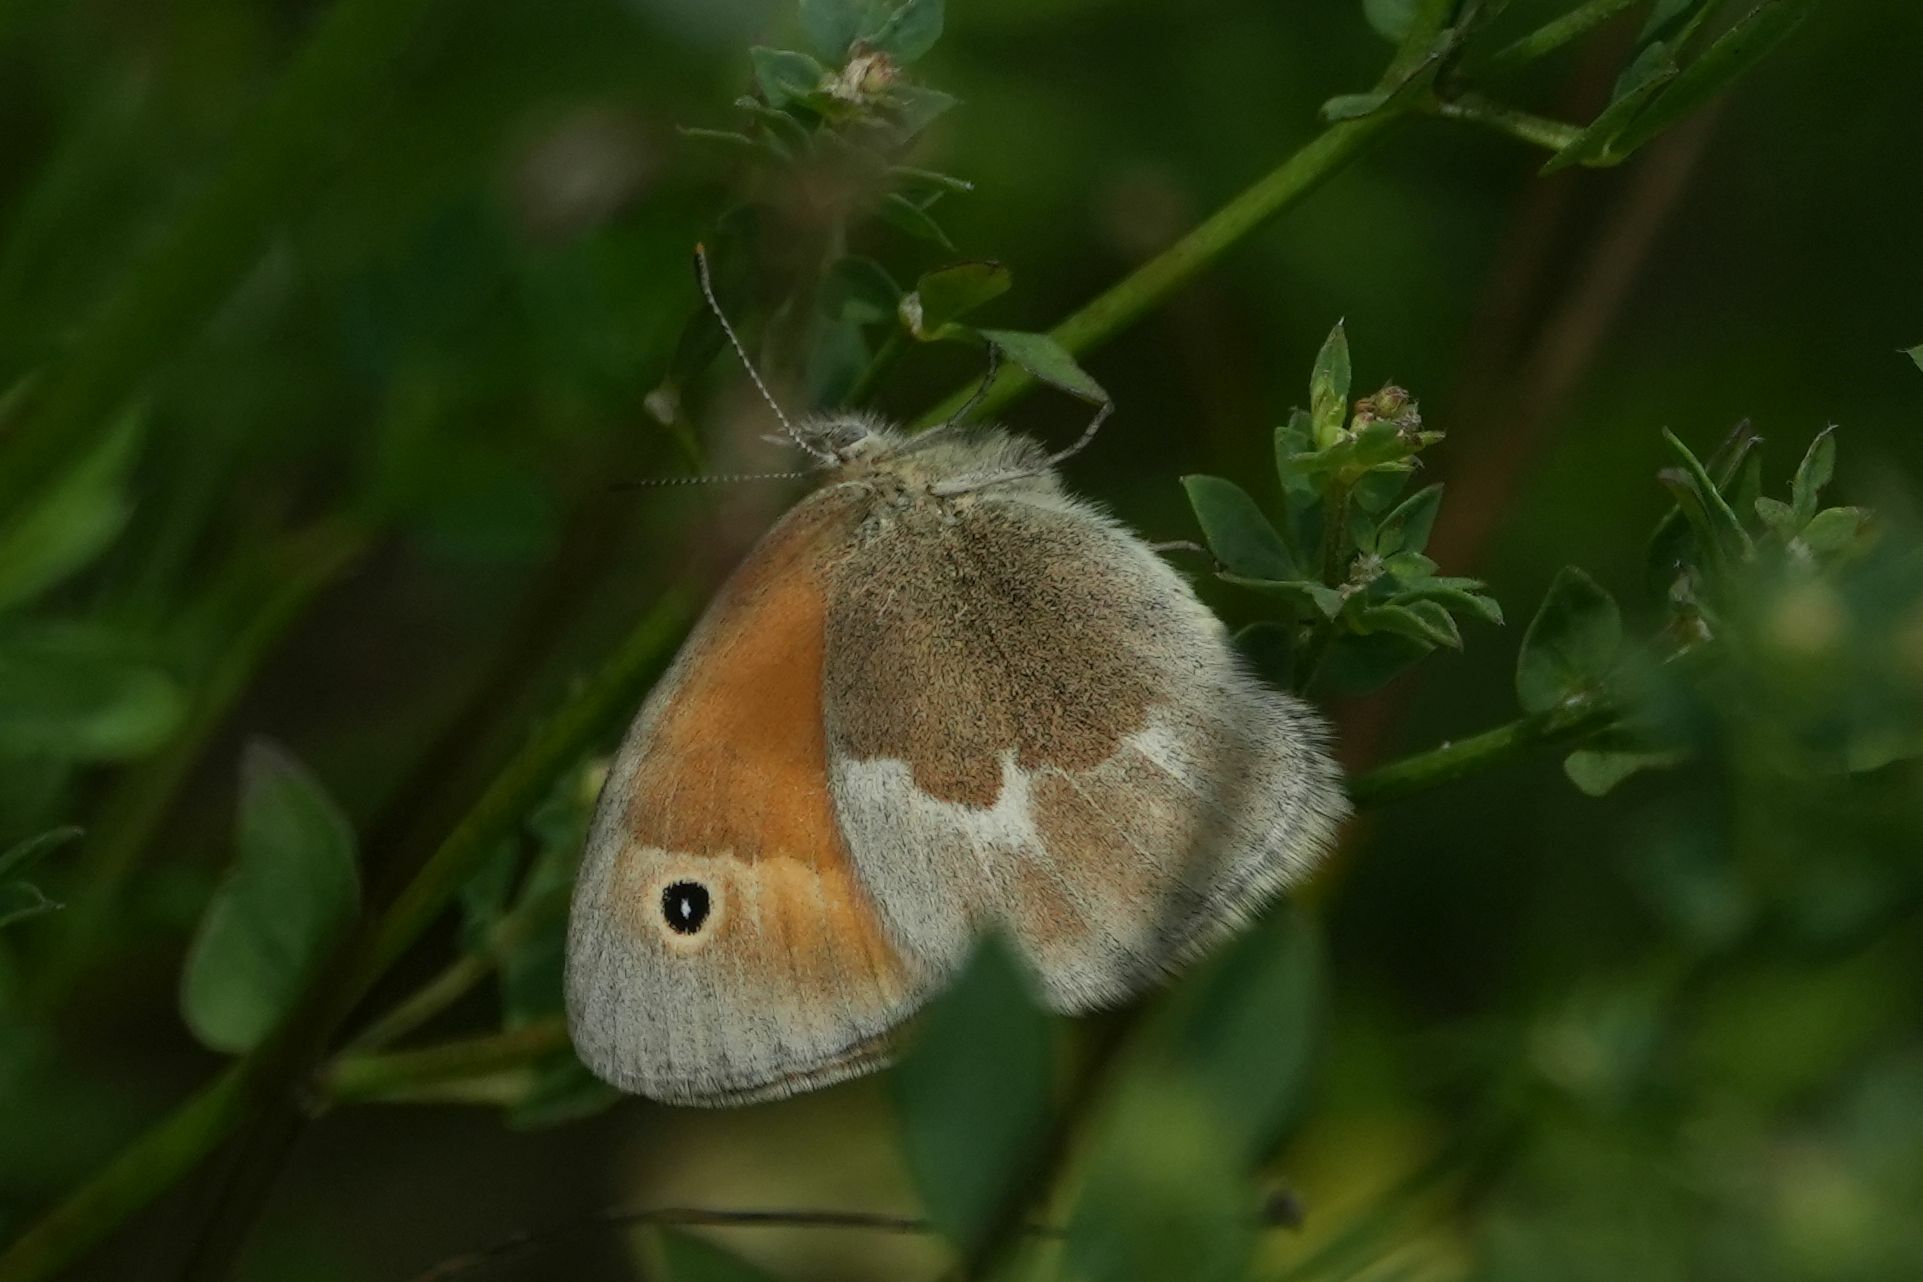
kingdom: Animalia
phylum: Arthropoda
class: Insecta
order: Lepidoptera
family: Nymphalidae
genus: Coenonympha
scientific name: Coenonympha california
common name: Common ringlet
